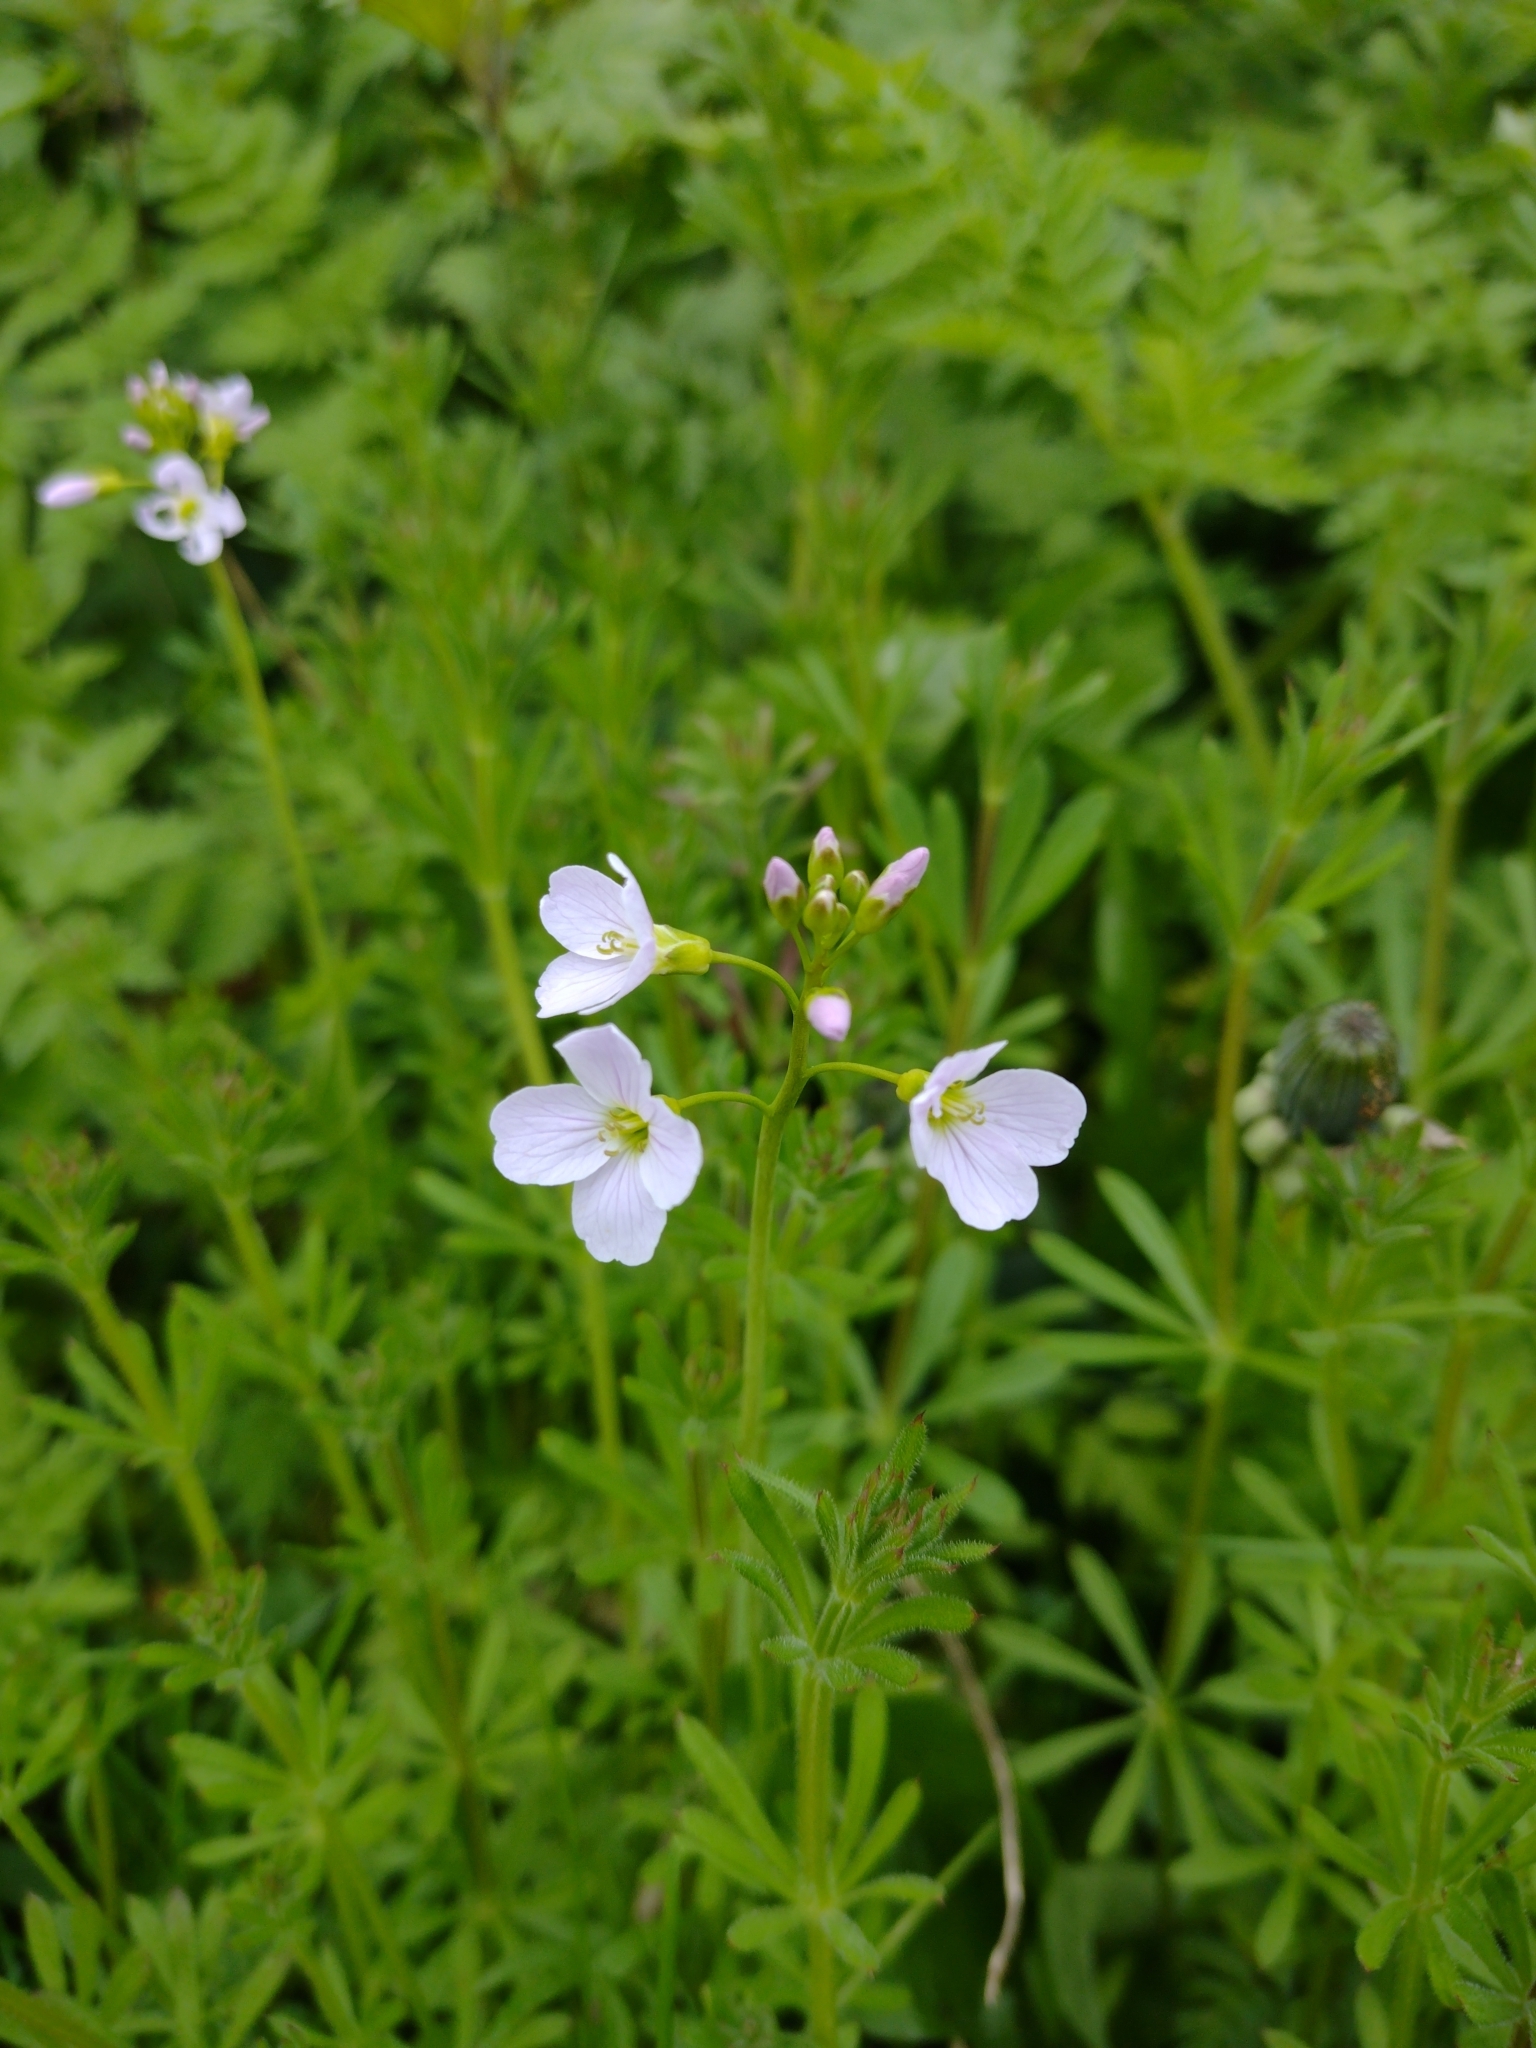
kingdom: Plantae
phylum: Tracheophyta
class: Magnoliopsida
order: Brassicales
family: Brassicaceae
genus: Cardamine
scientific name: Cardamine pratensis
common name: Cuckoo flower
